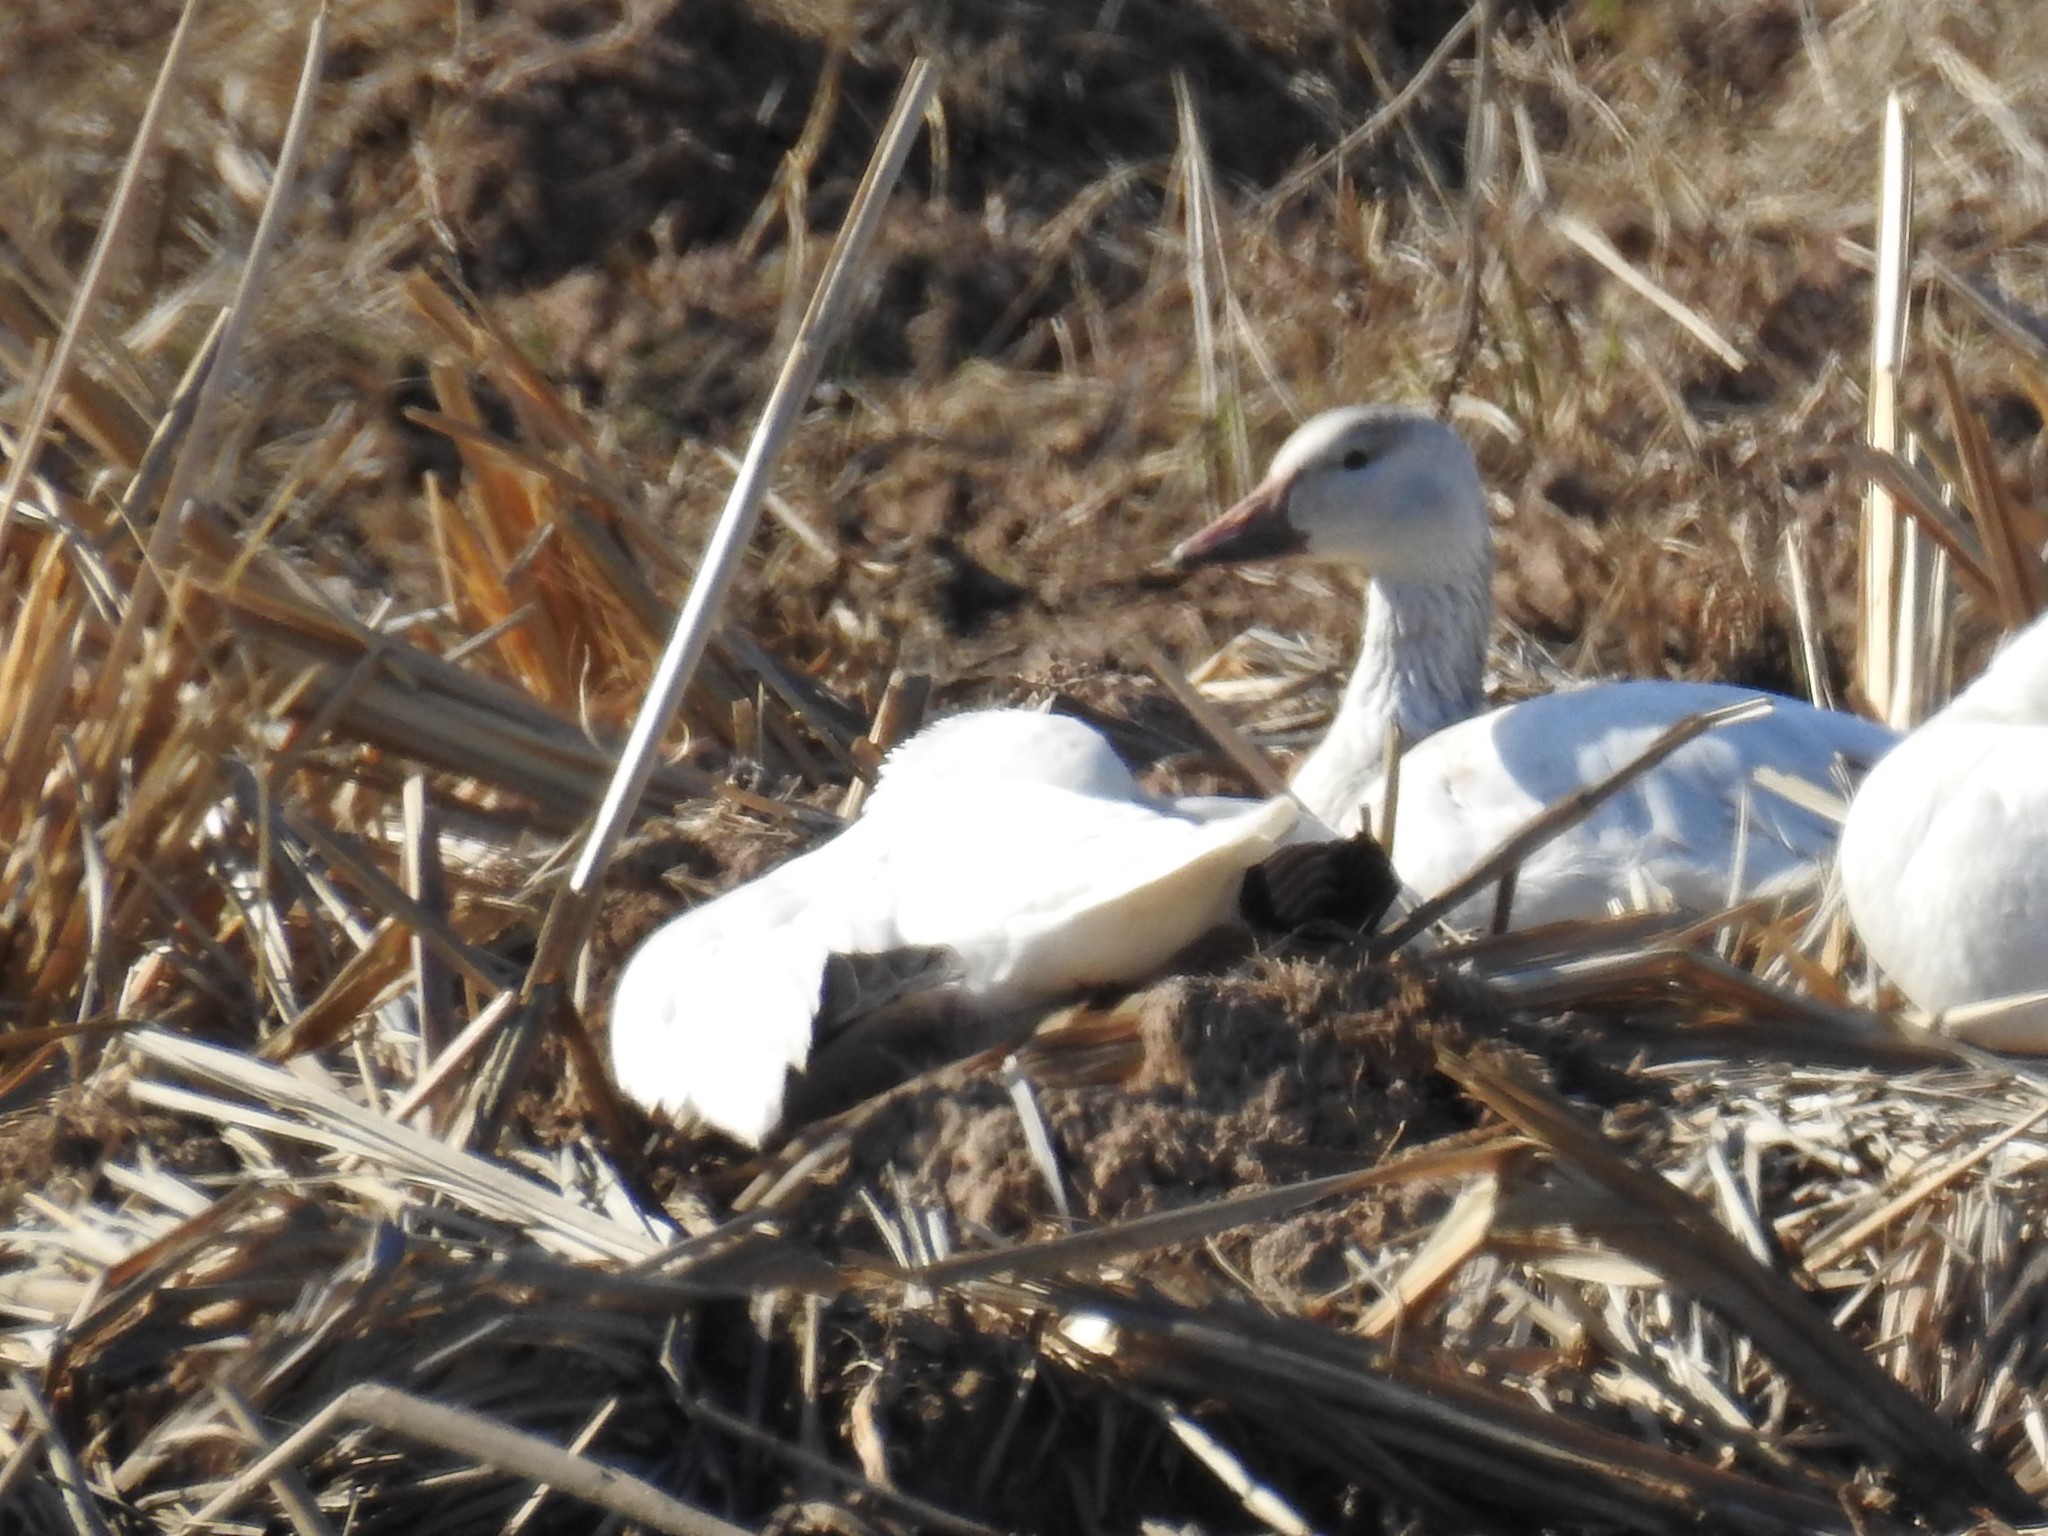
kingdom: Animalia
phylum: Chordata
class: Aves
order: Anseriformes
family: Anatidae
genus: Anser
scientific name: Anser caerulescens
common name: Snow goose
